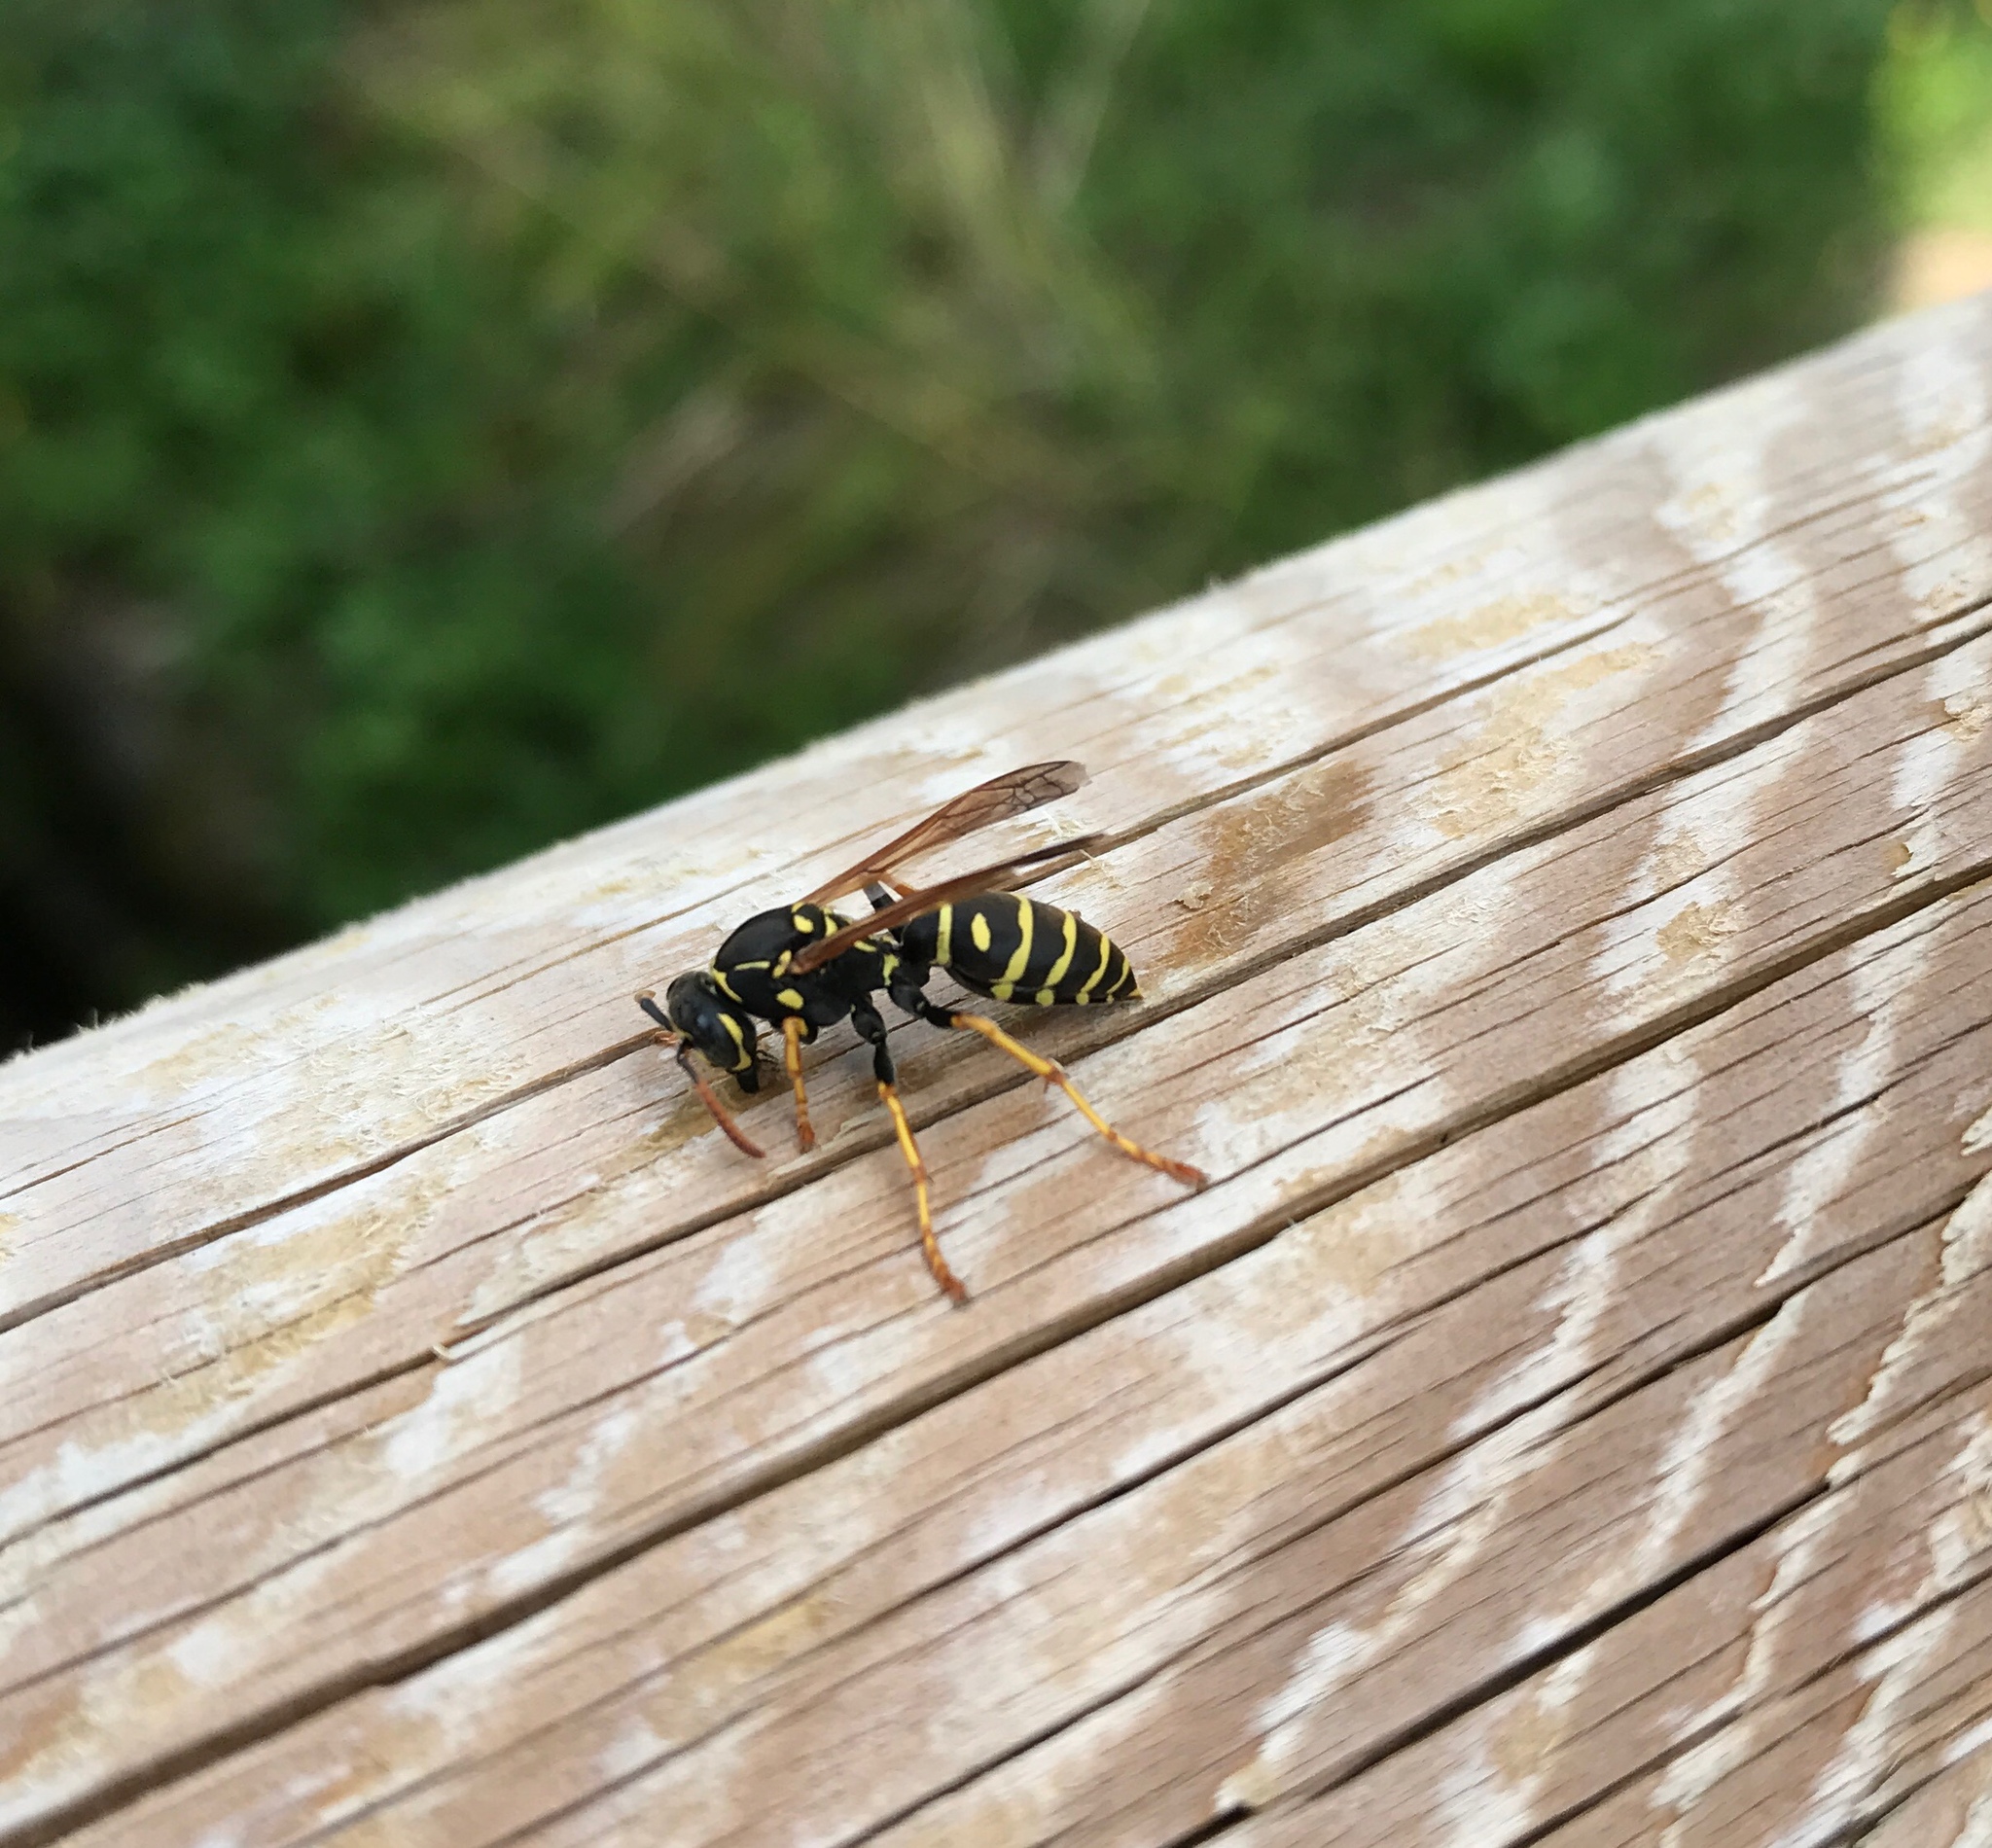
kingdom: Animalia
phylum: Arthropoda
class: Insecta
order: Hymenoptera
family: Eumenidae
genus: Polistes
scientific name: Polistes dominula
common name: Paper wasp
